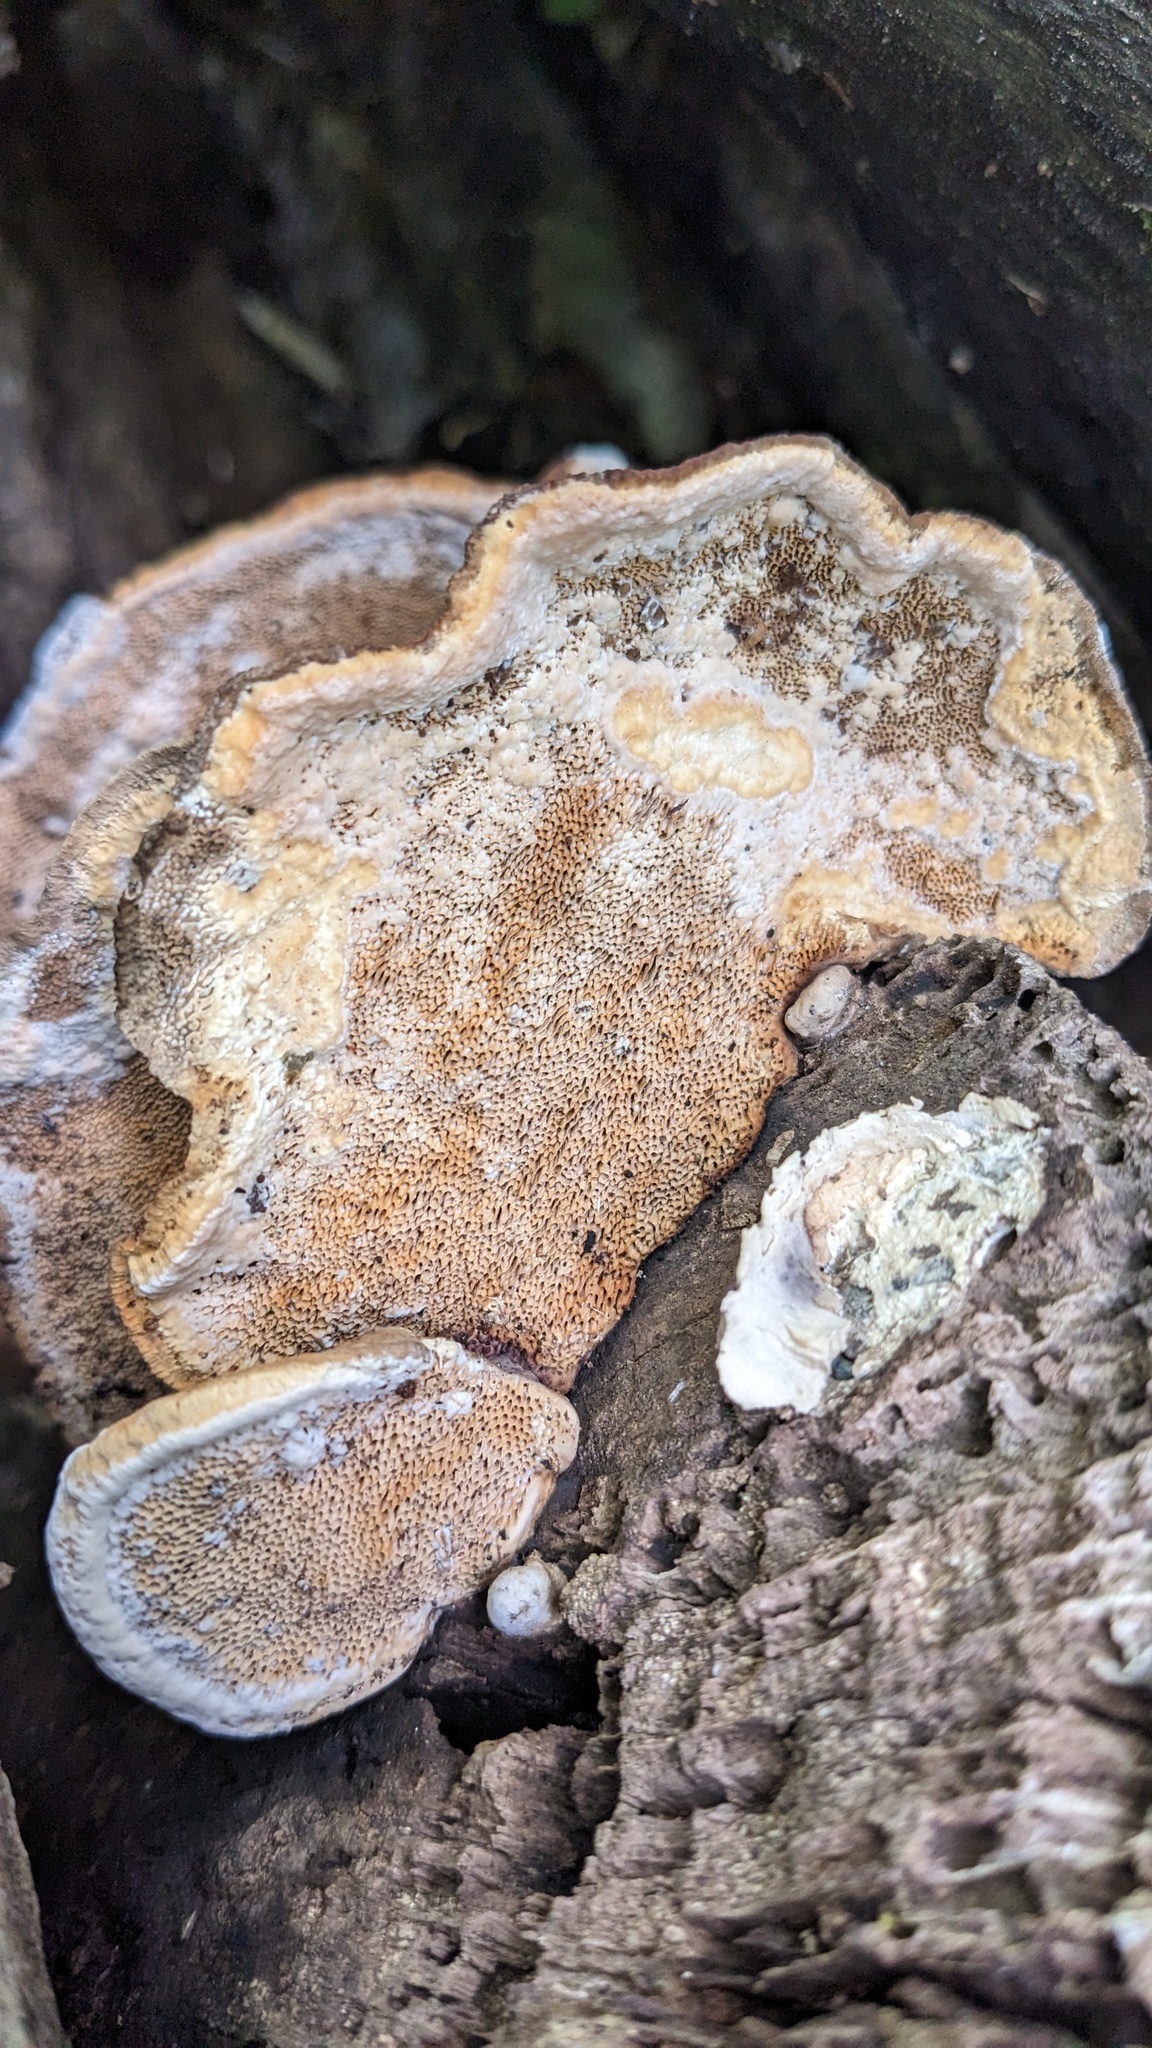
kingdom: Fungi
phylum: Basidiomycota
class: Agaricomycetes
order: Polyporales
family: Fomitopsidaceae
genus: Fomitopsis
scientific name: Fomitopsis
